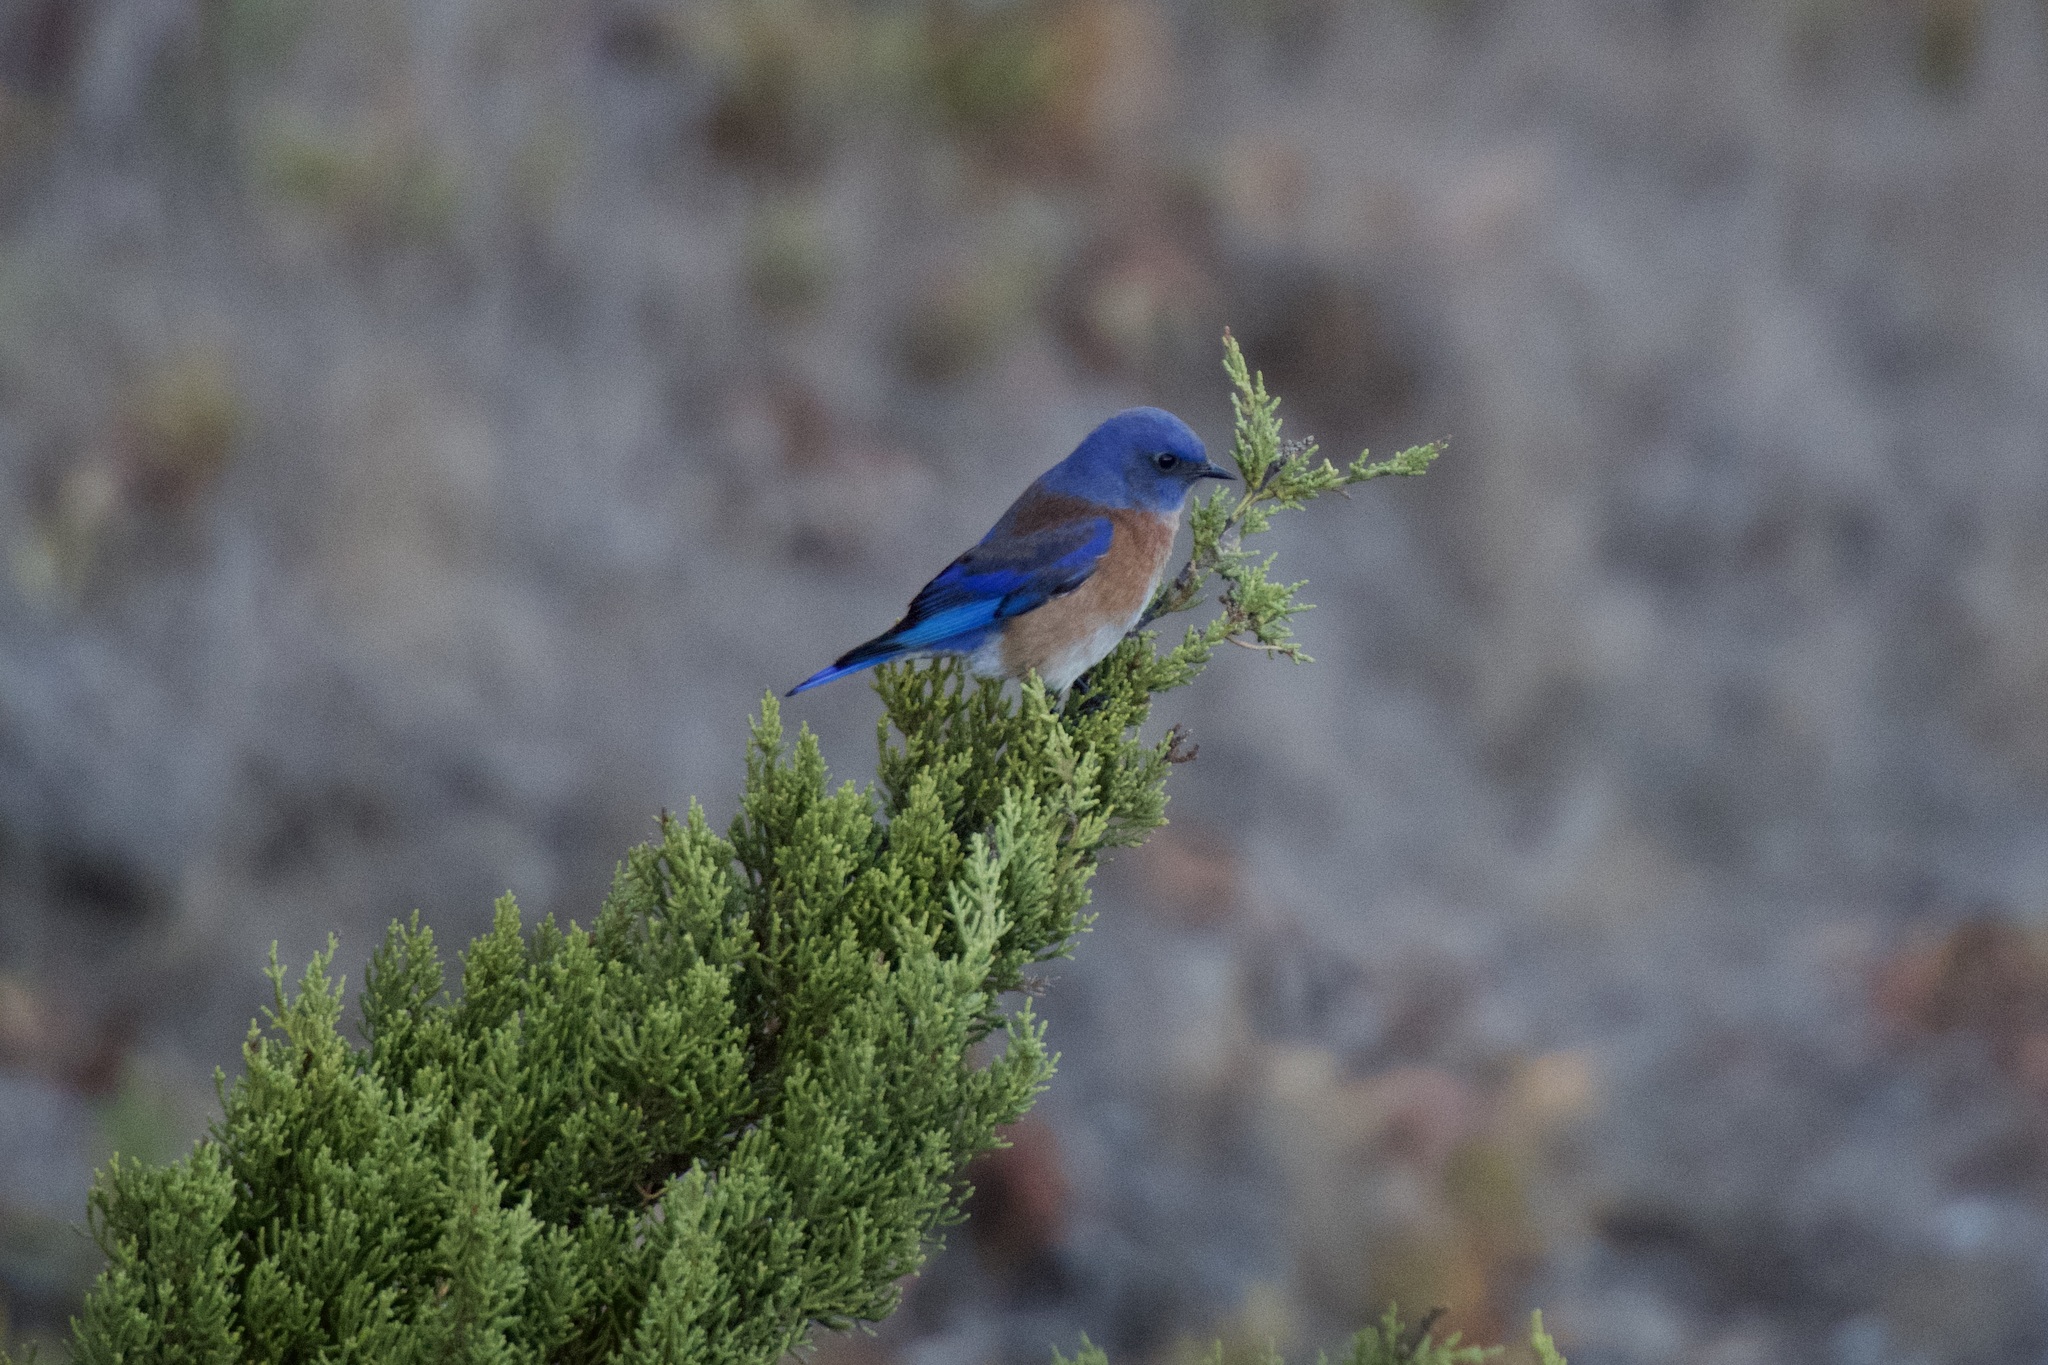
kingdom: Animalia
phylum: Chordata
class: Aves
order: Passeriformes
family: Turdidae
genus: Sialia
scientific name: Sialia mexicana
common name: Western bluebird
